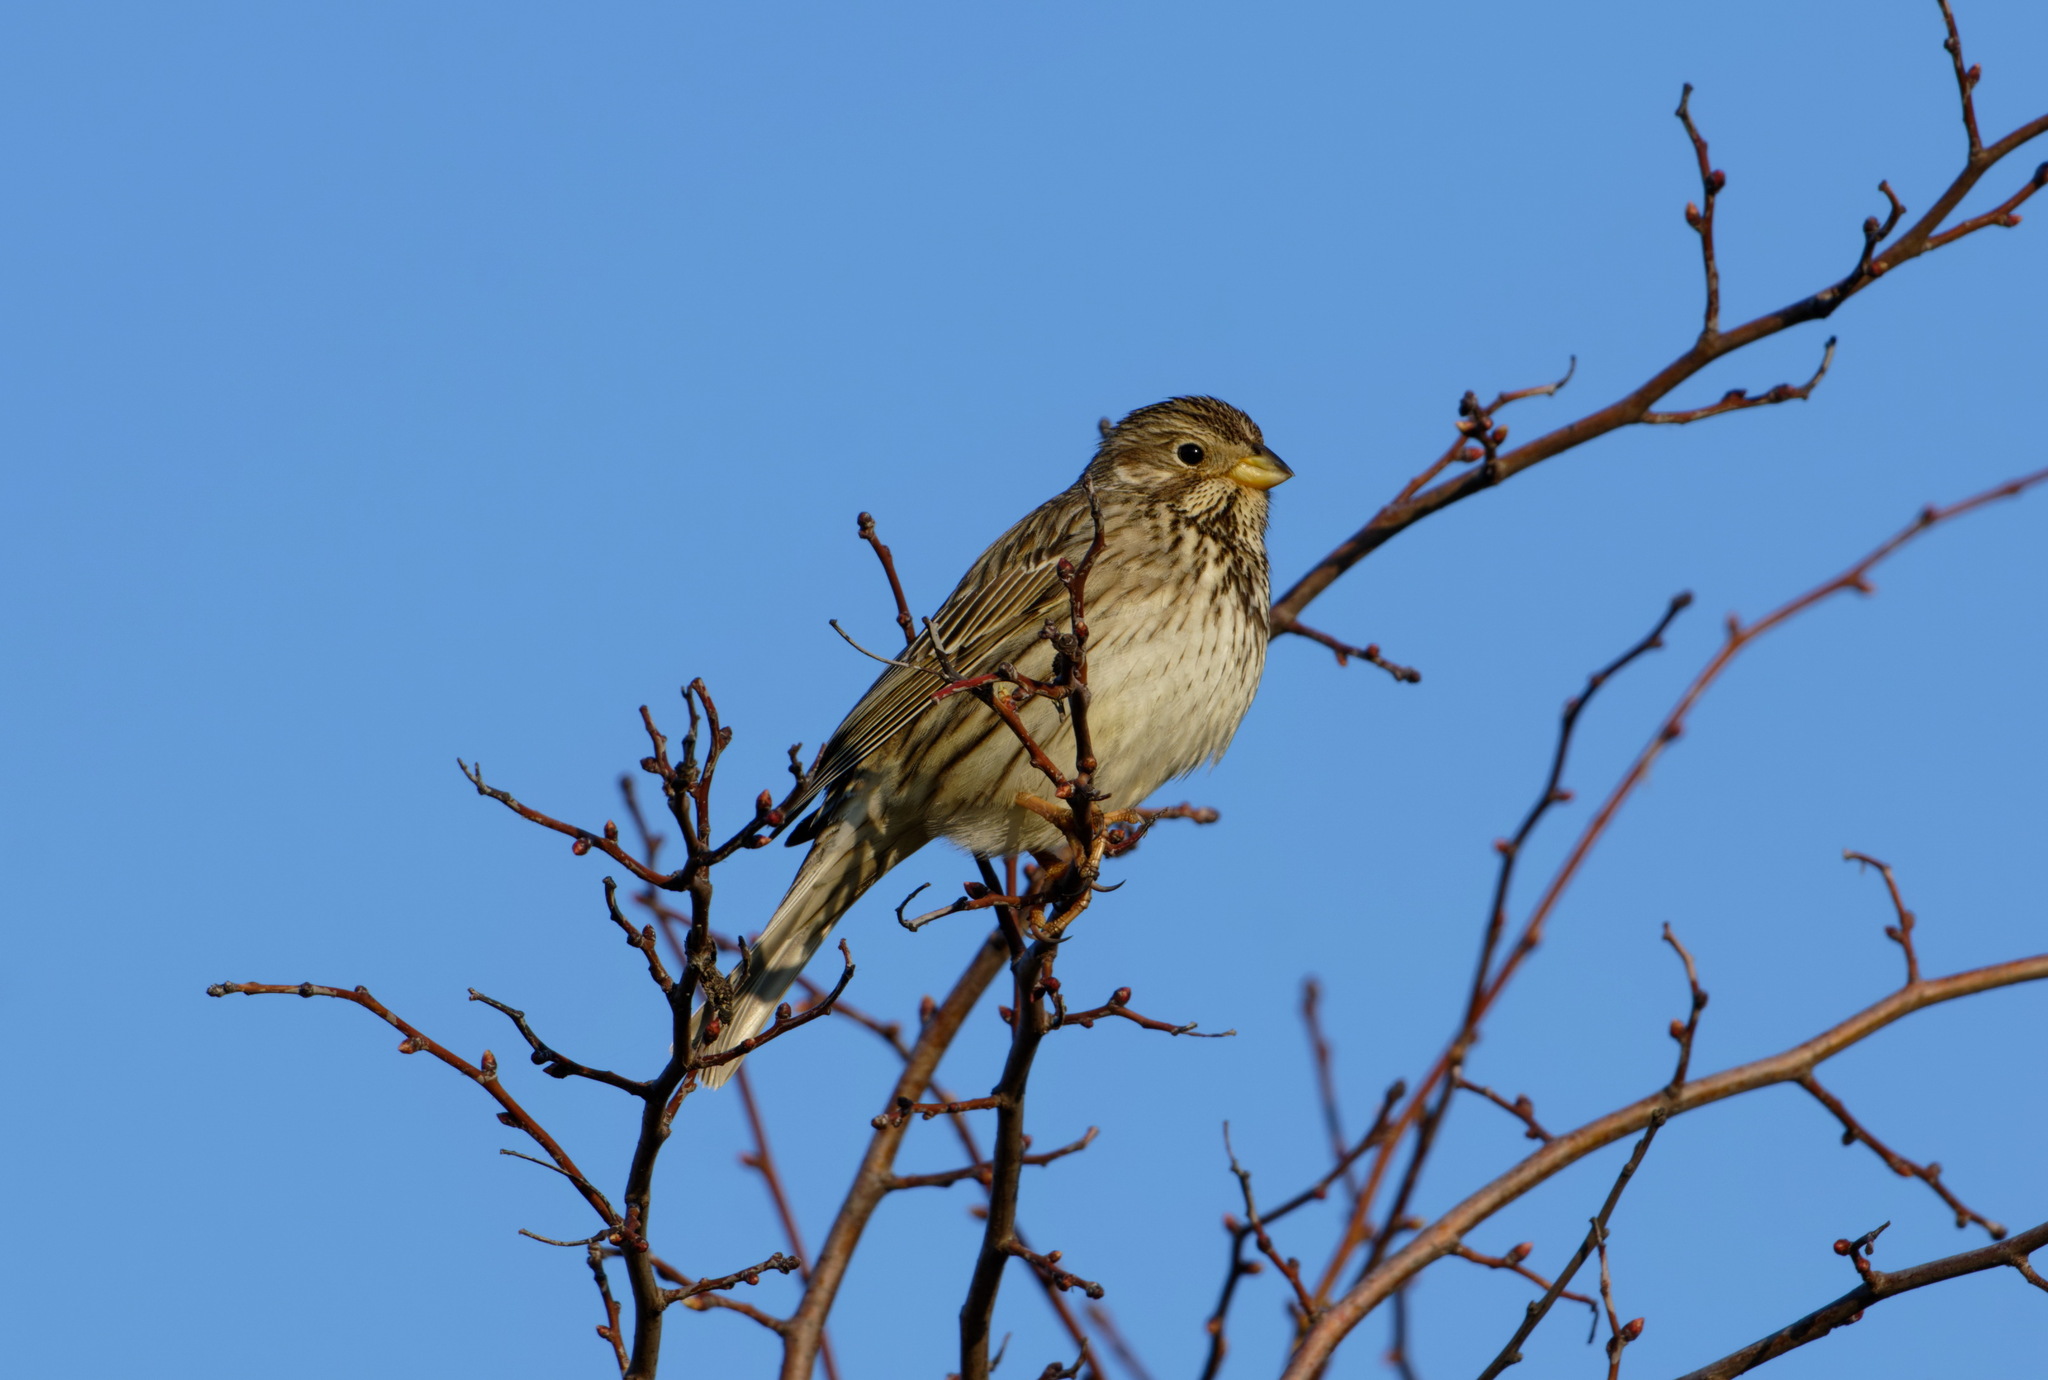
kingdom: Animalia
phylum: Chordata
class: Aves
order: Passeriformes
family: Emberizidae
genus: Emberiza
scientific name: Emberiza calandra
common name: Corn bunting
